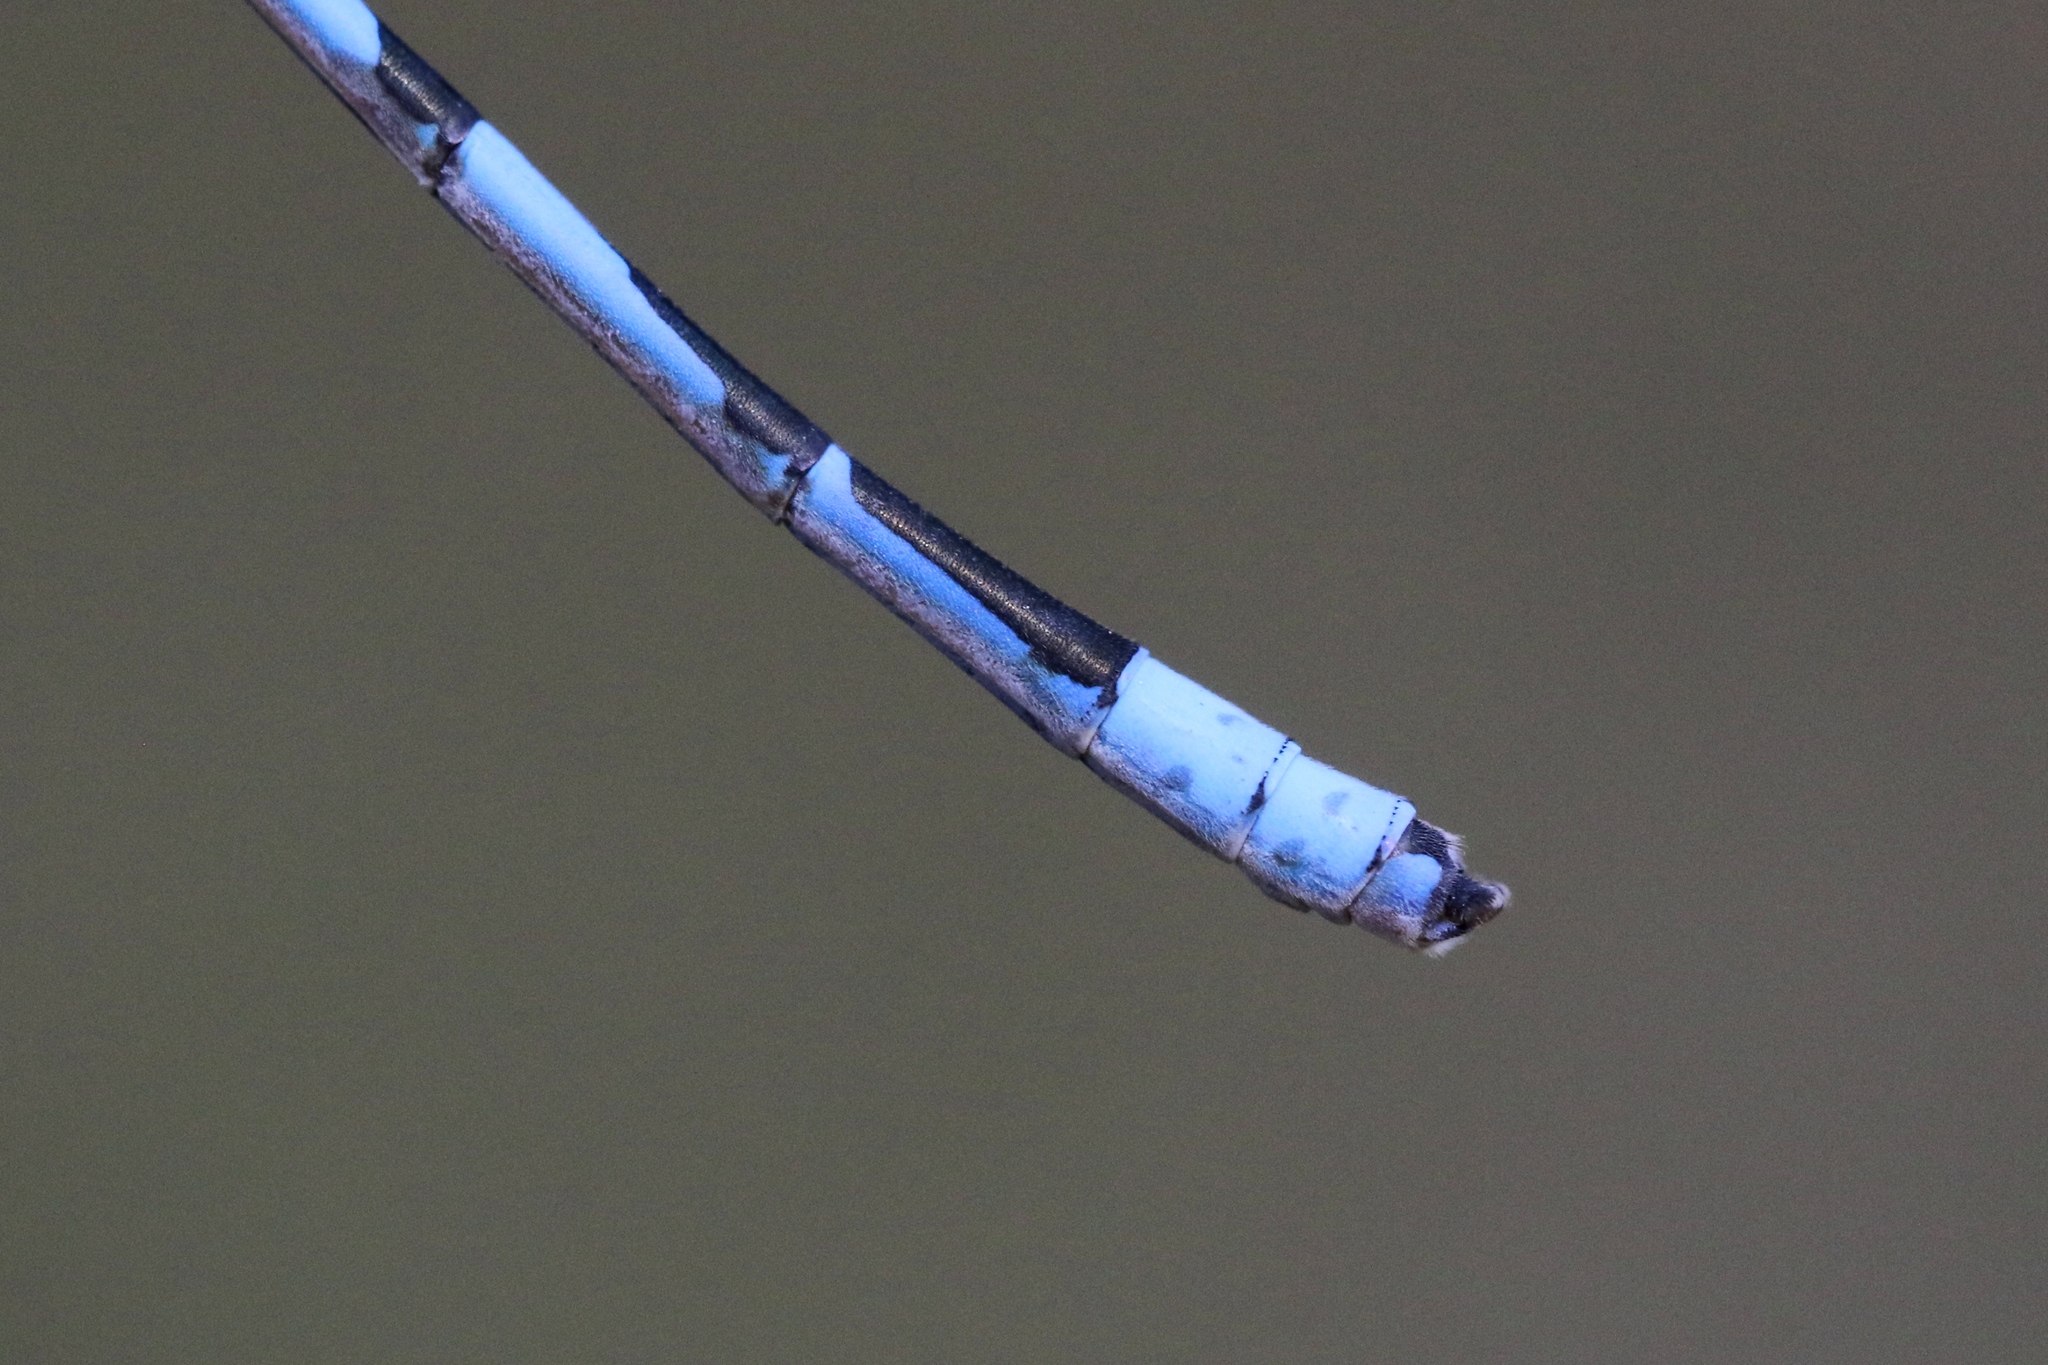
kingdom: Animalia
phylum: Arthropoda
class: Insecta
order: Odonata
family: Coenagrionidae
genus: Enallagma
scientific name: Enallagma civile
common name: Damselfly
